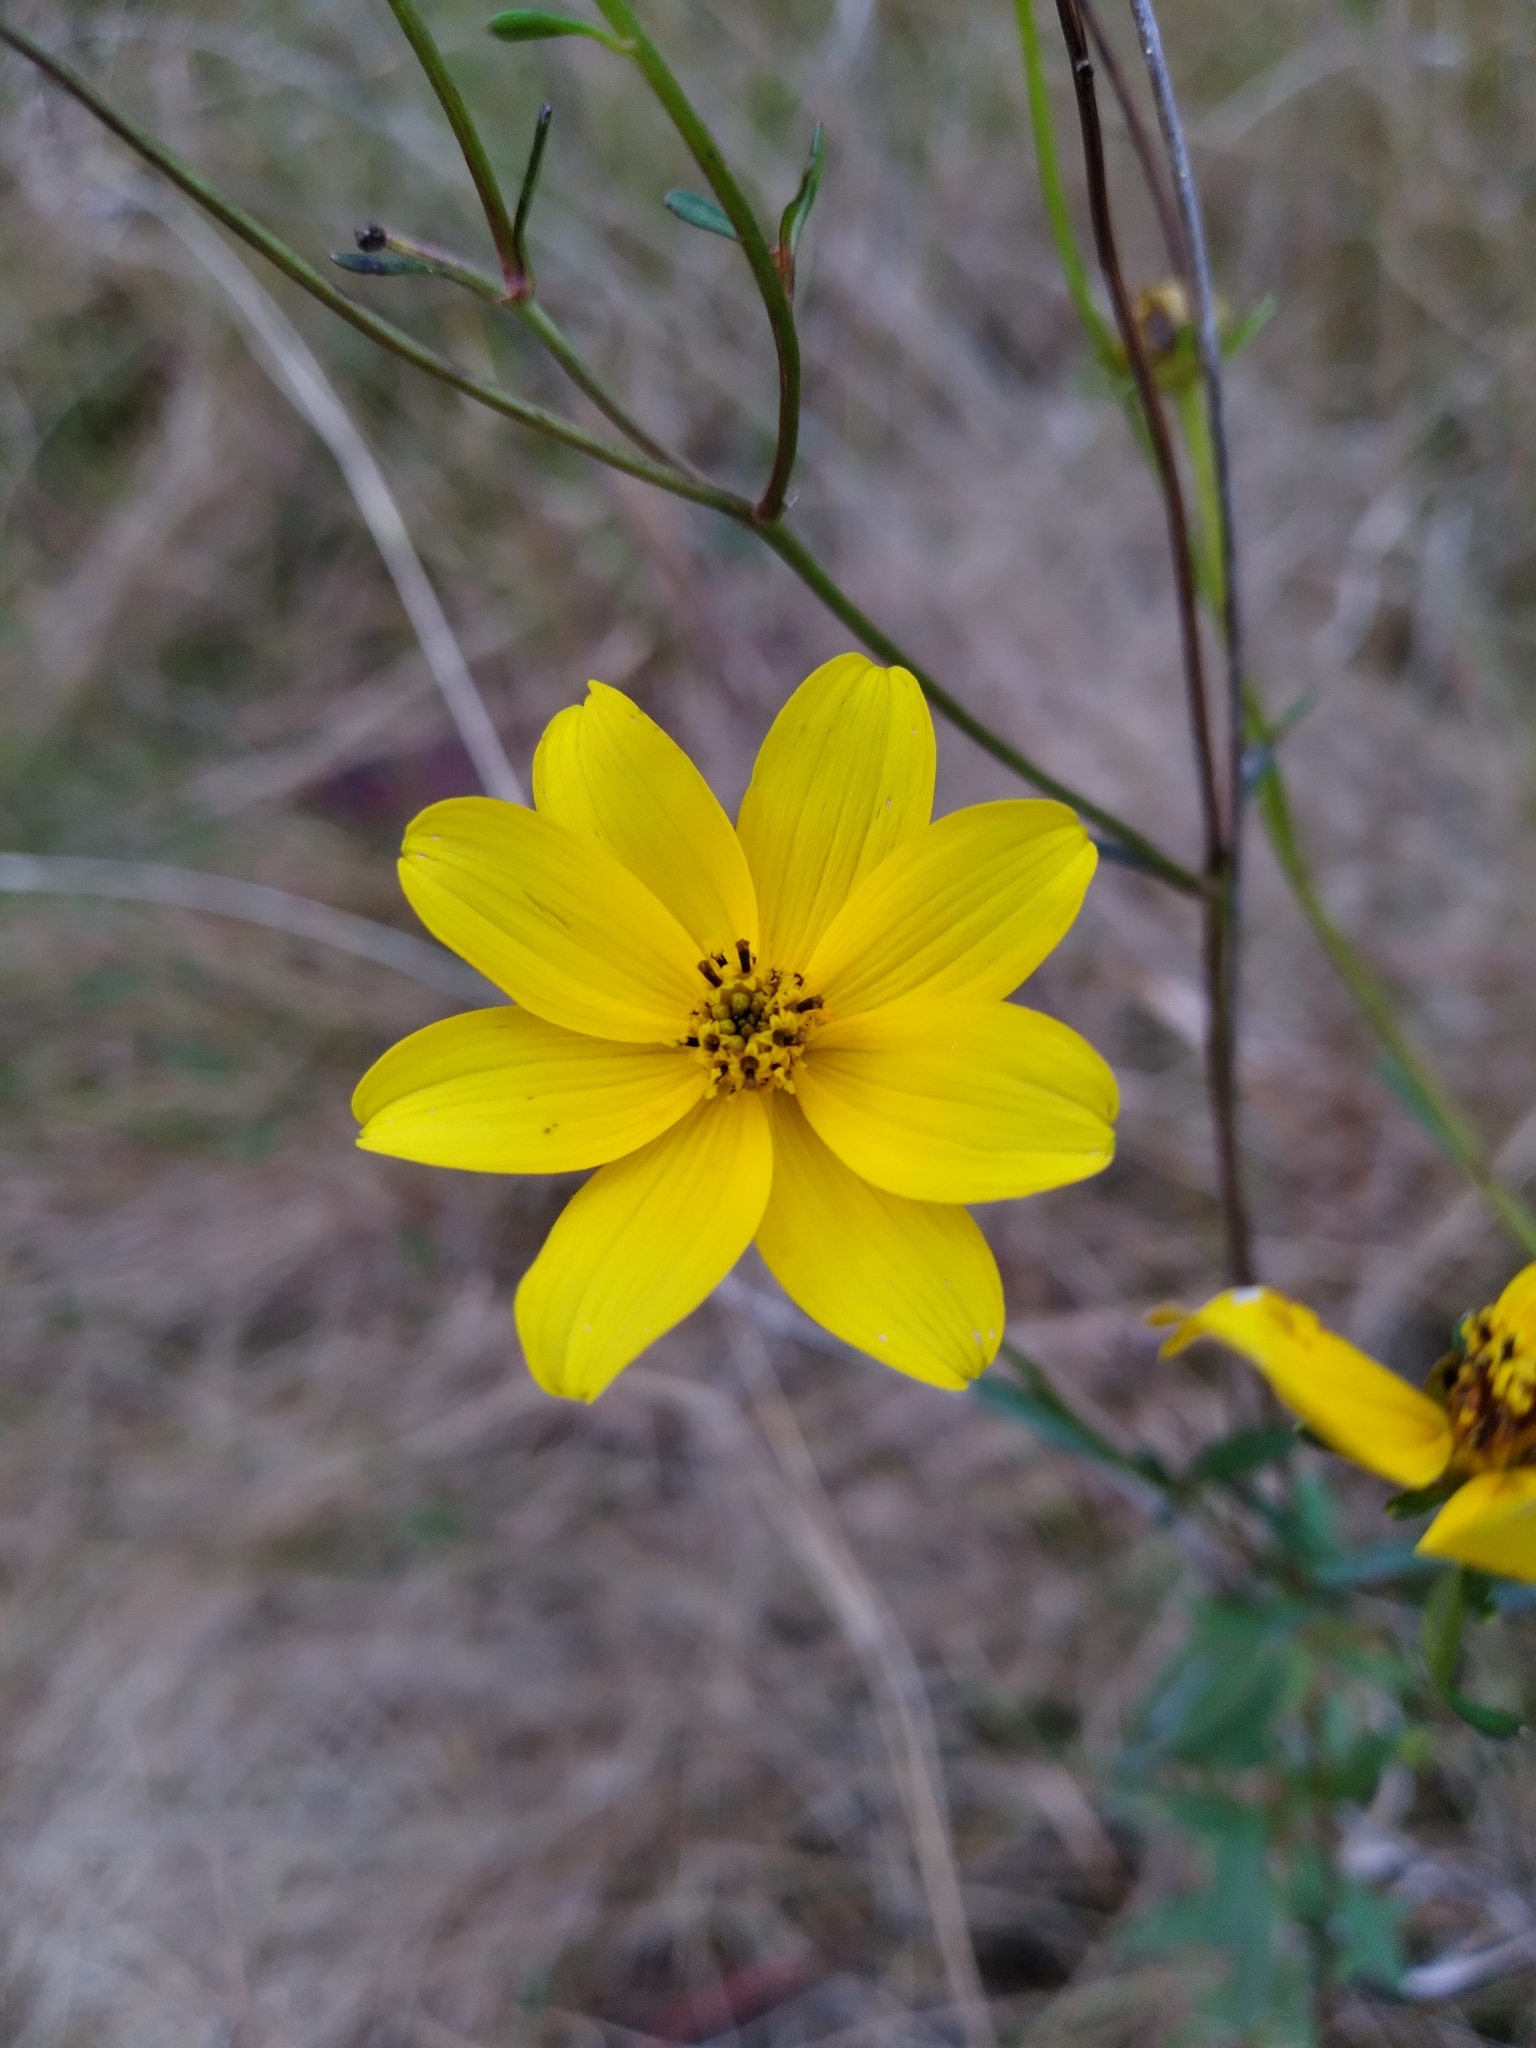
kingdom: Plantae
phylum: Tracheophyta
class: Magnoliopsida
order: Asterales
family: Asteraceae
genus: Bidens
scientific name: Bidens mitis
